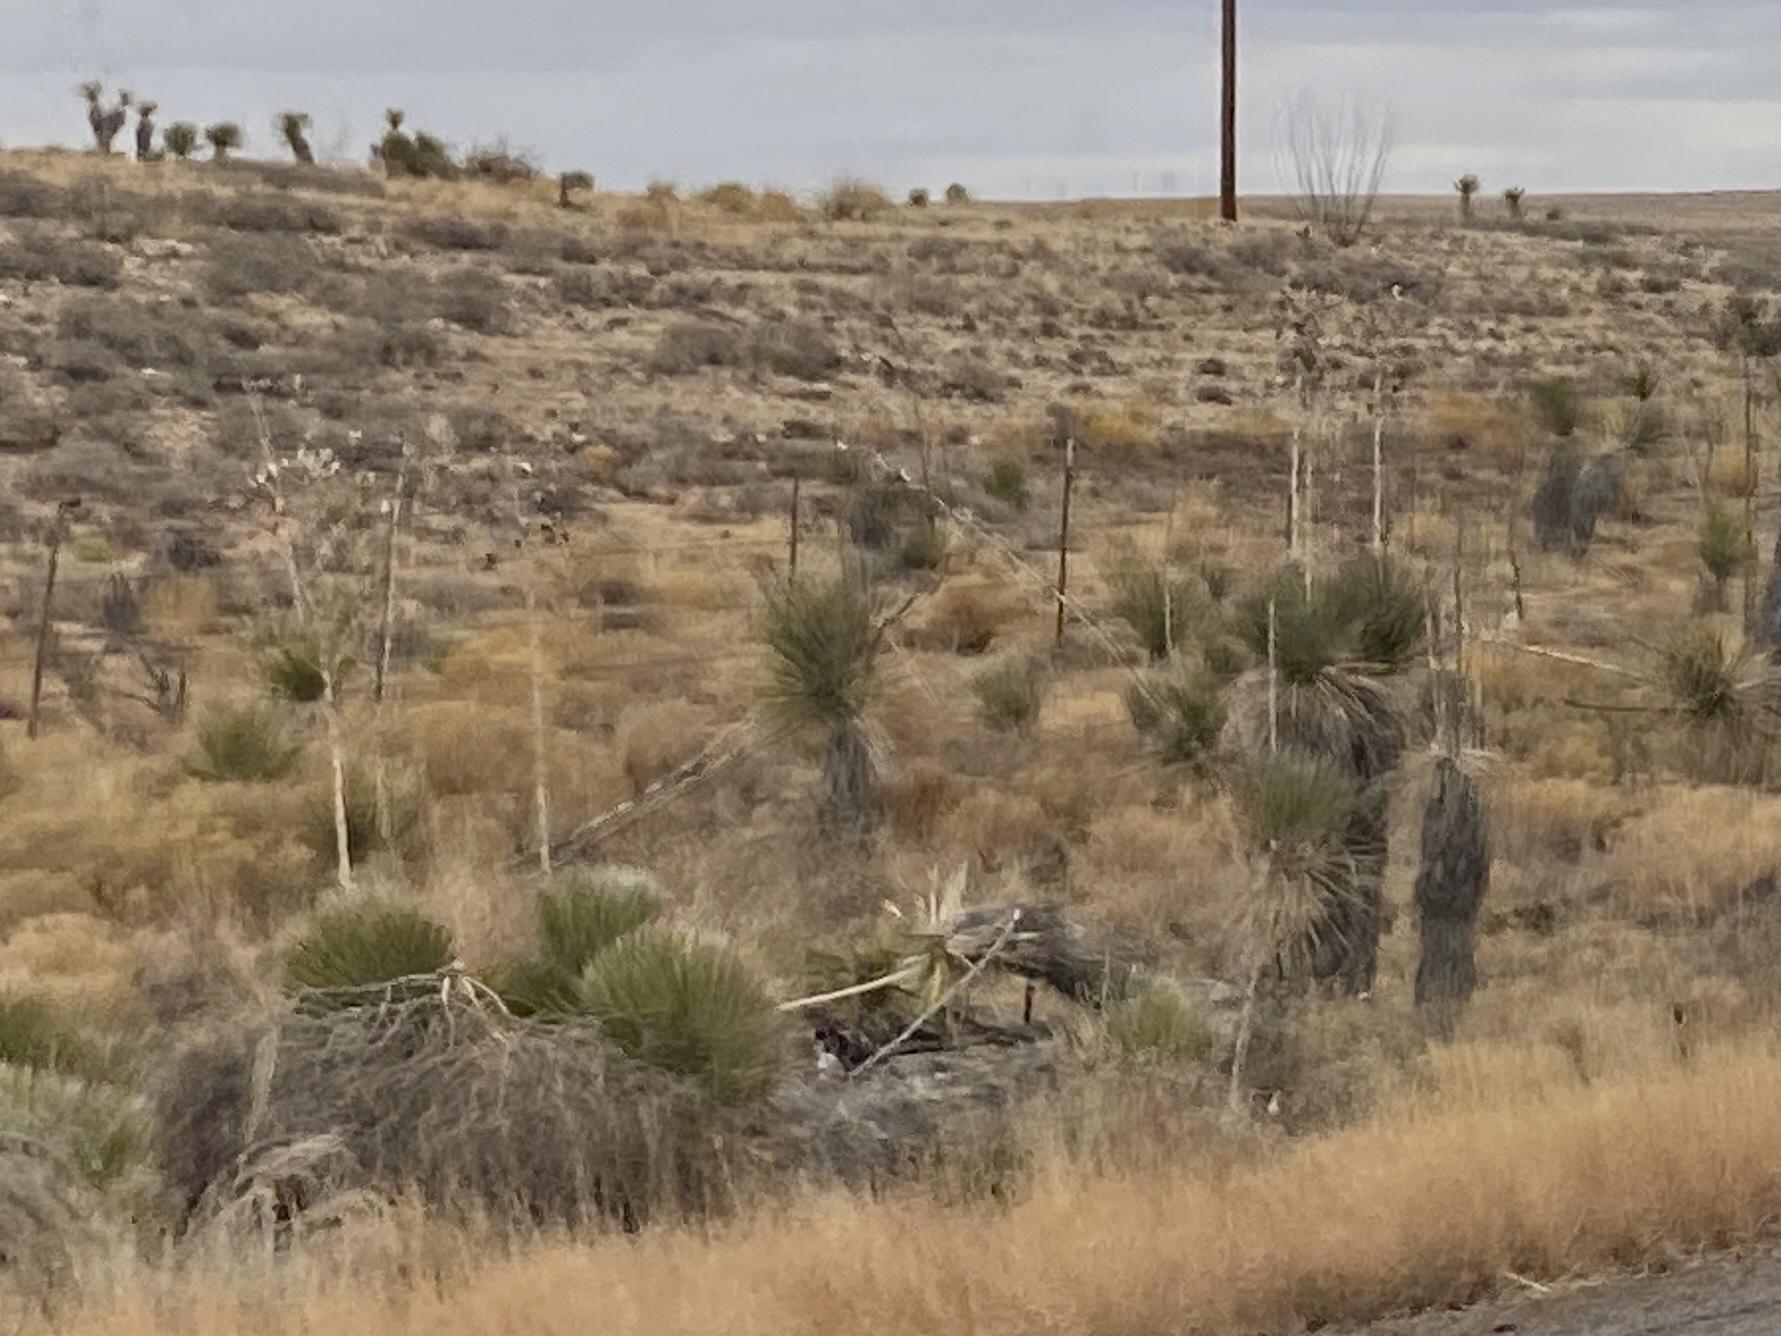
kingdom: Plantae
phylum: Tracheophyta
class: Liliopsida
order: Asparagales
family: Asparagaceae
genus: Yucca
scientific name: Yucca elata
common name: Palmella
